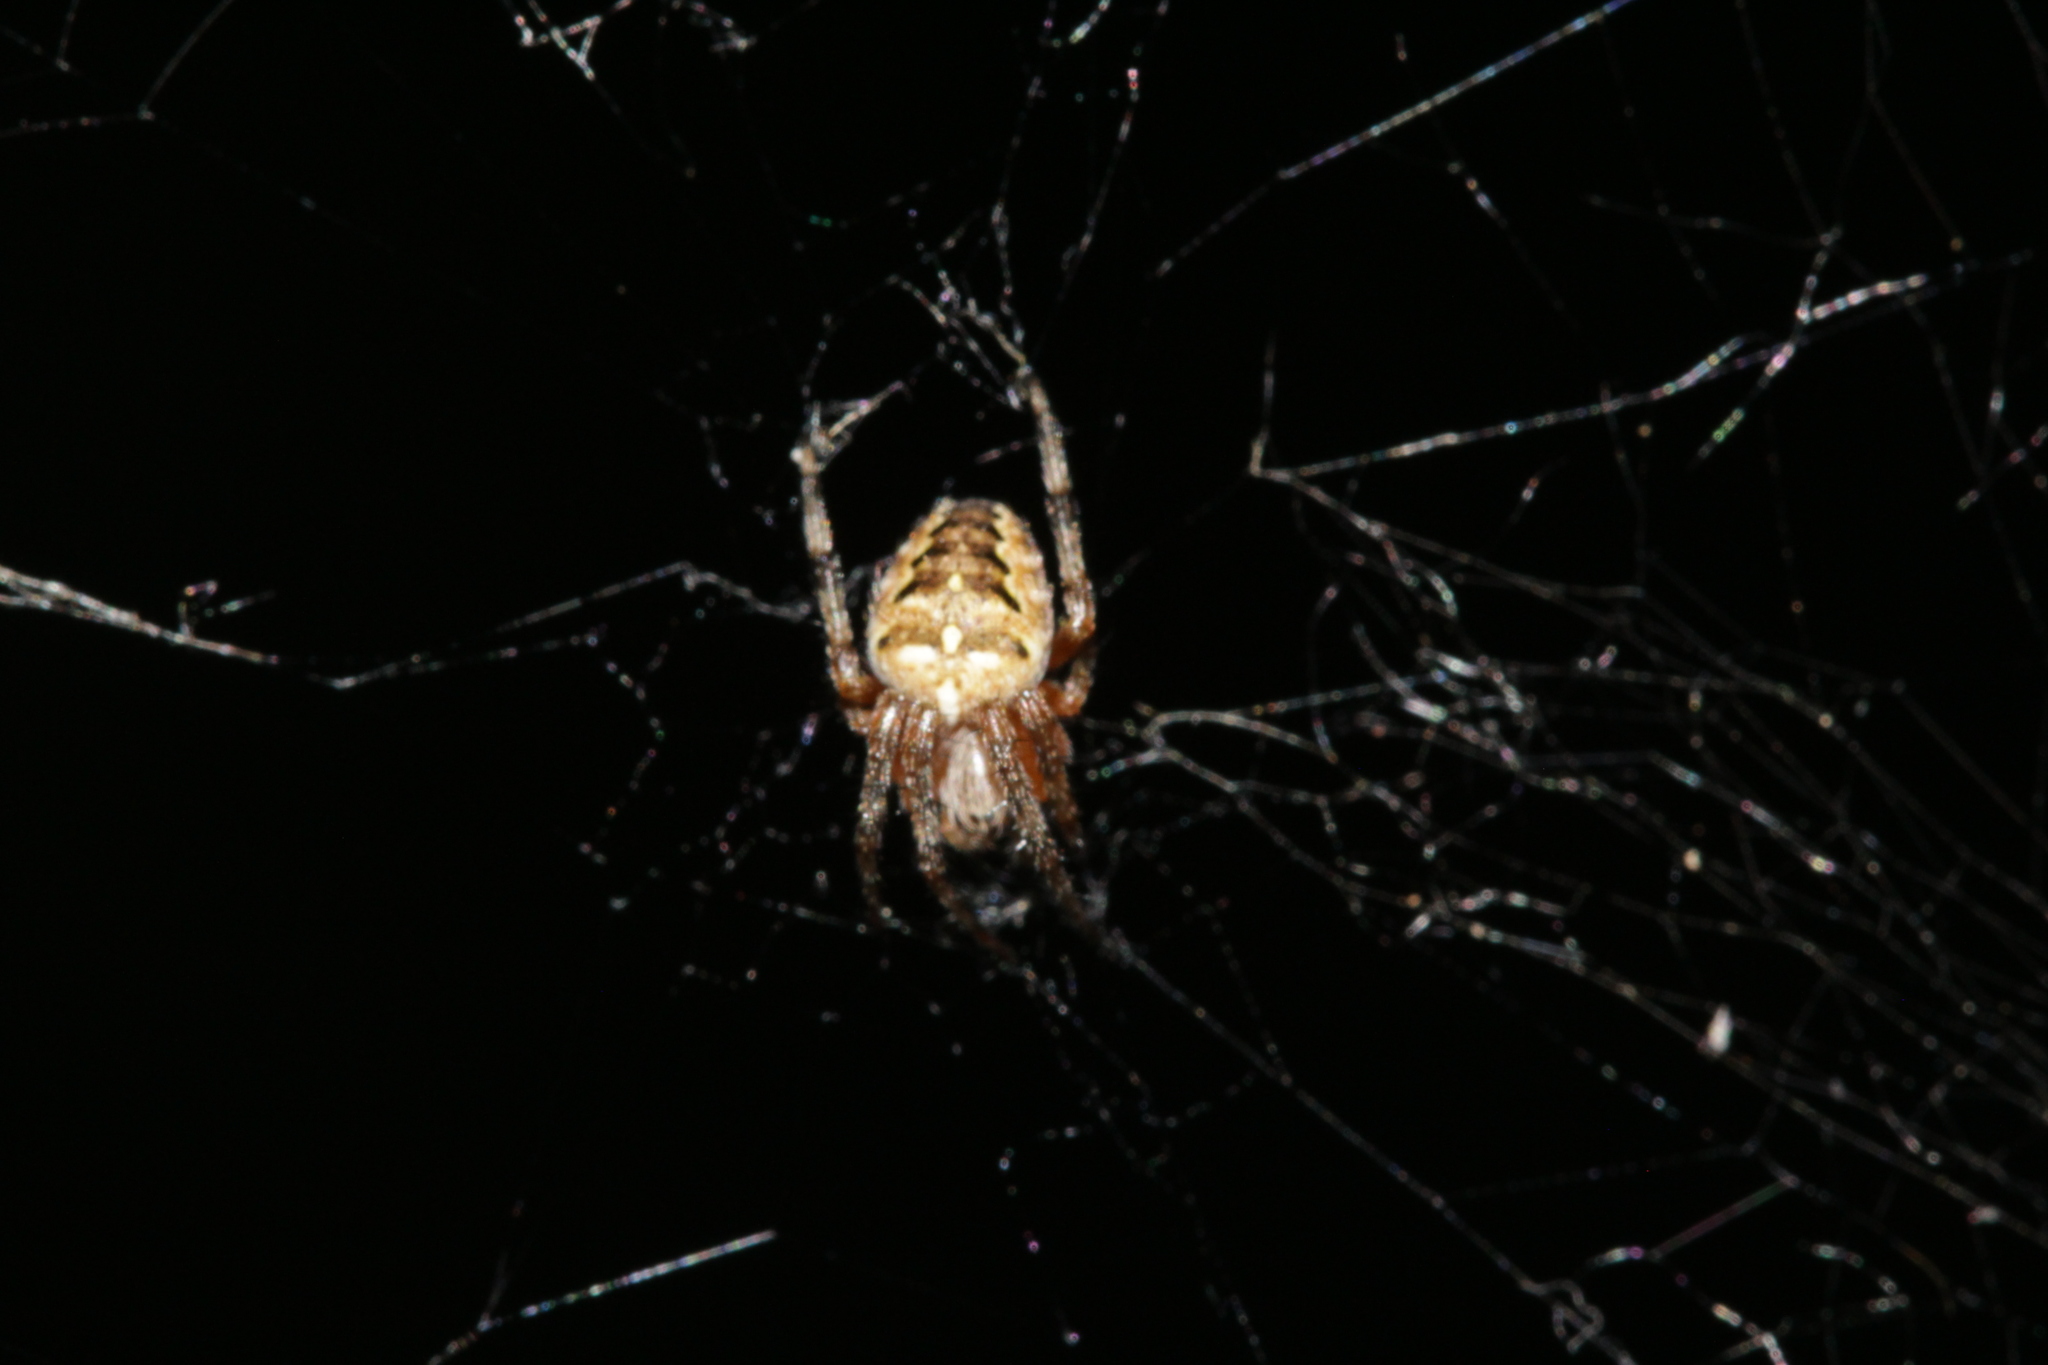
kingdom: Animalia
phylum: Arthropoda
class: Arachnida
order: Araneae
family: Araneidae
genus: Araneus
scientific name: Araneus diadematus
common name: Cross orbweaver
